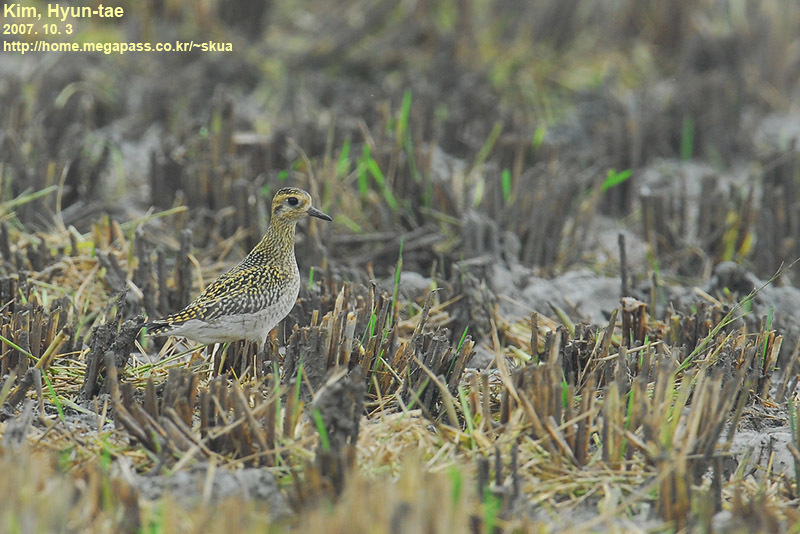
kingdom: Animalia
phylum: Chordata
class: Aves
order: Charadriiformes
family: Charadriidae
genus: Pluvialis
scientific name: Pluvialis fulva
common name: Pacific golden plover
